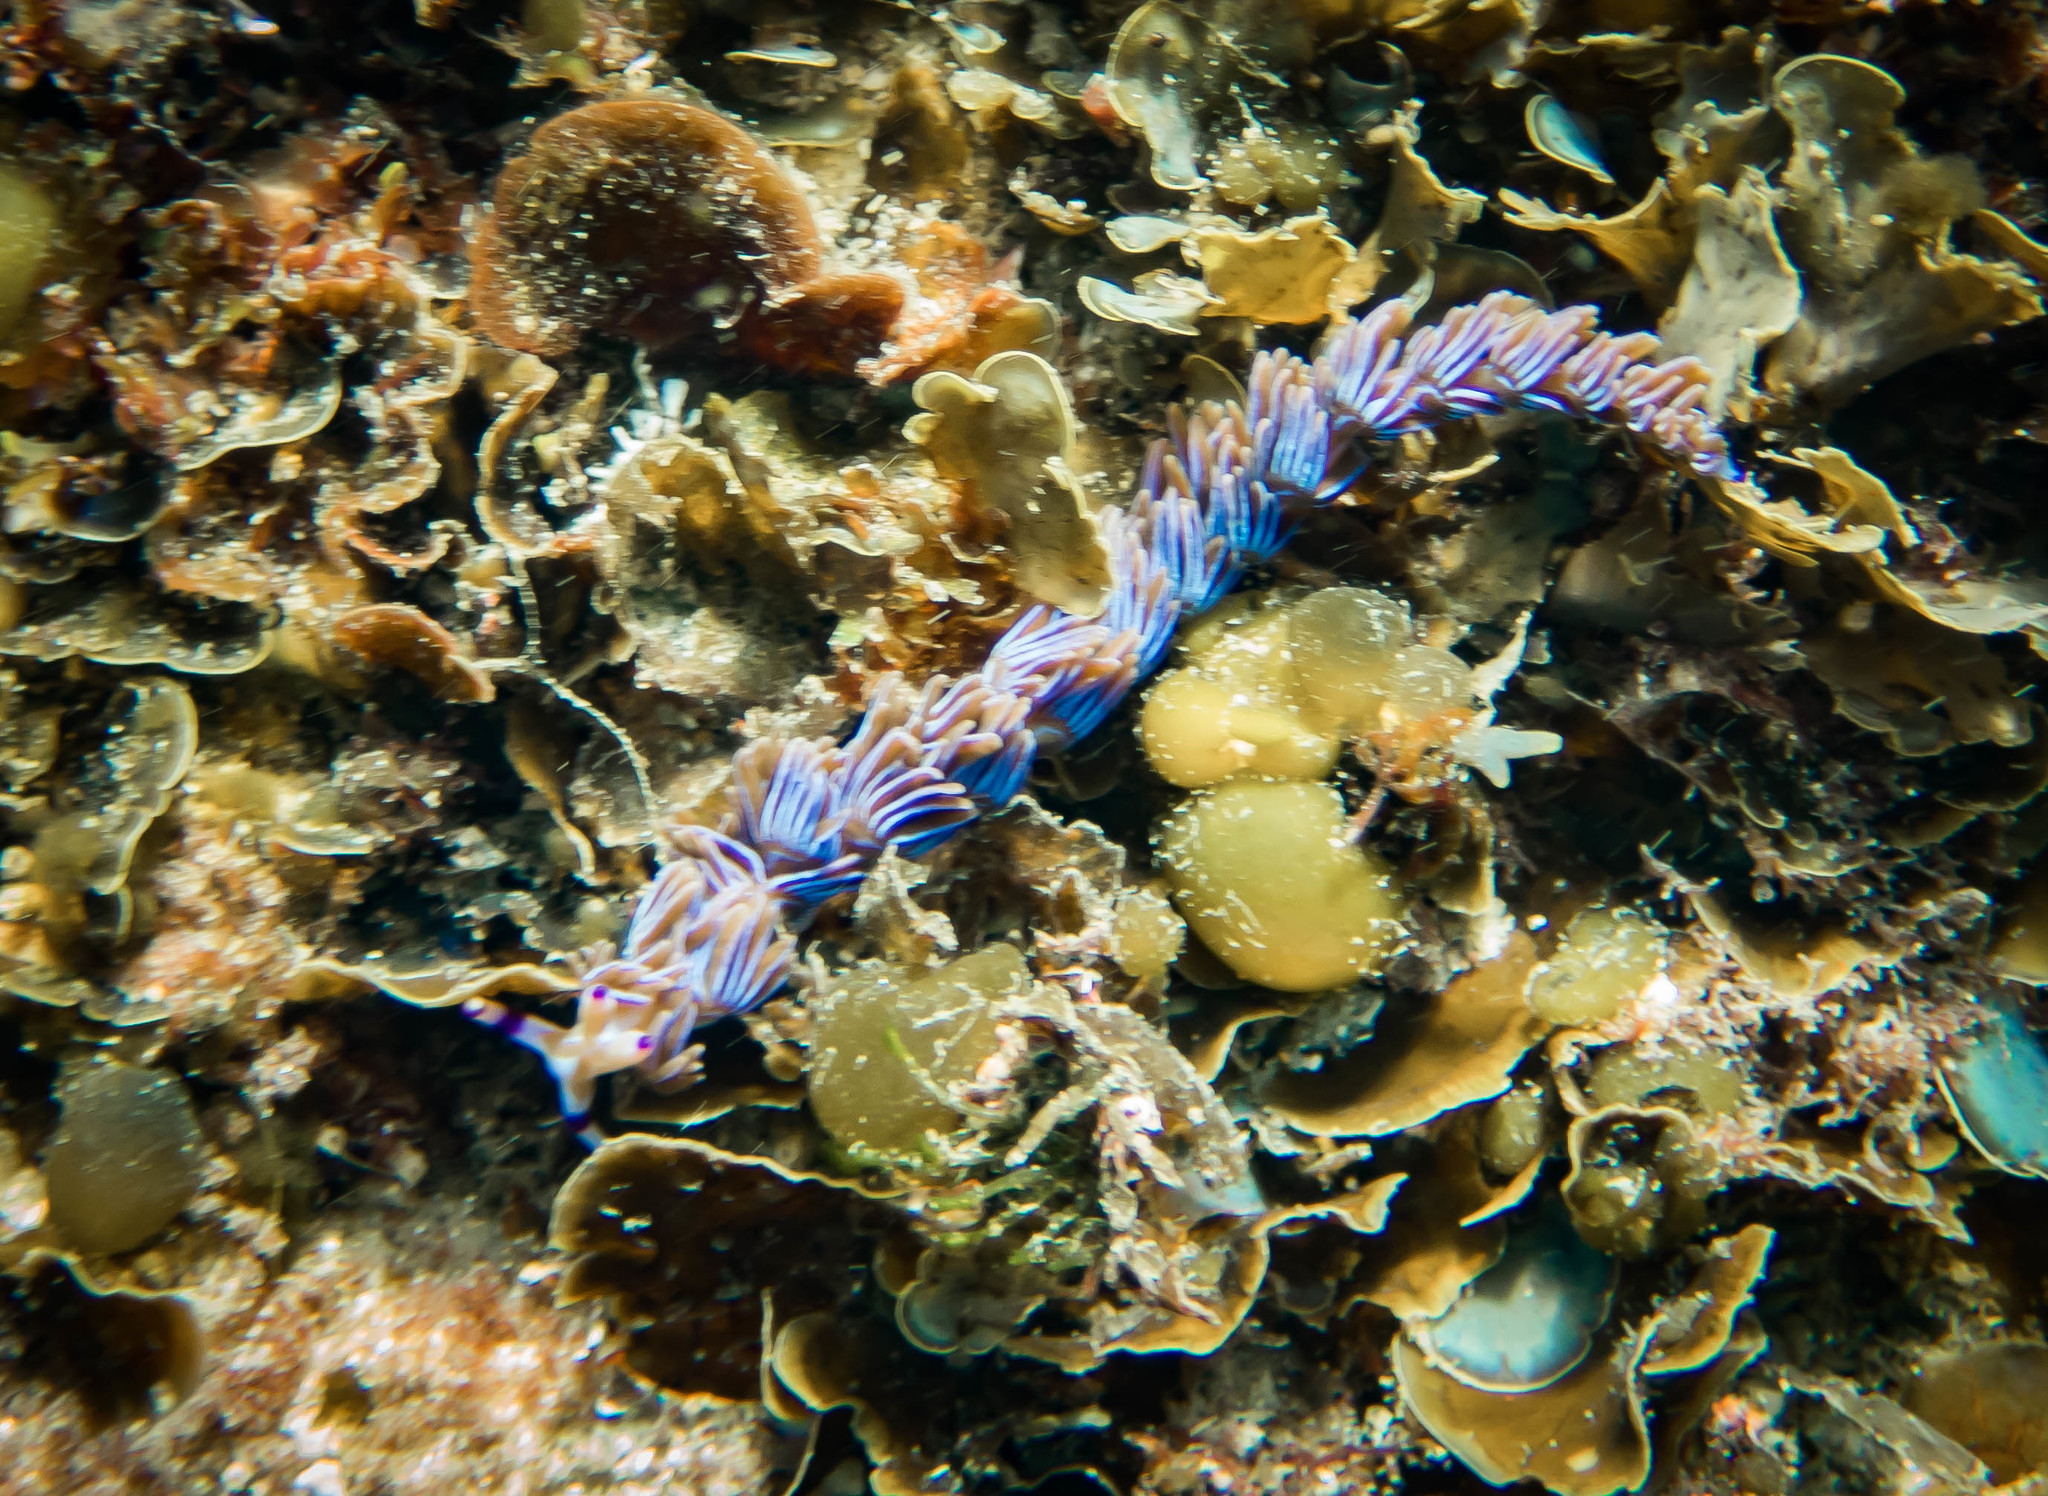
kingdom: Animalia
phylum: Mollusca
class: Gastropoda
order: Nudibranchia
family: Facelinidae
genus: Pteraeolidia
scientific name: Pteraeolidia ianthina
